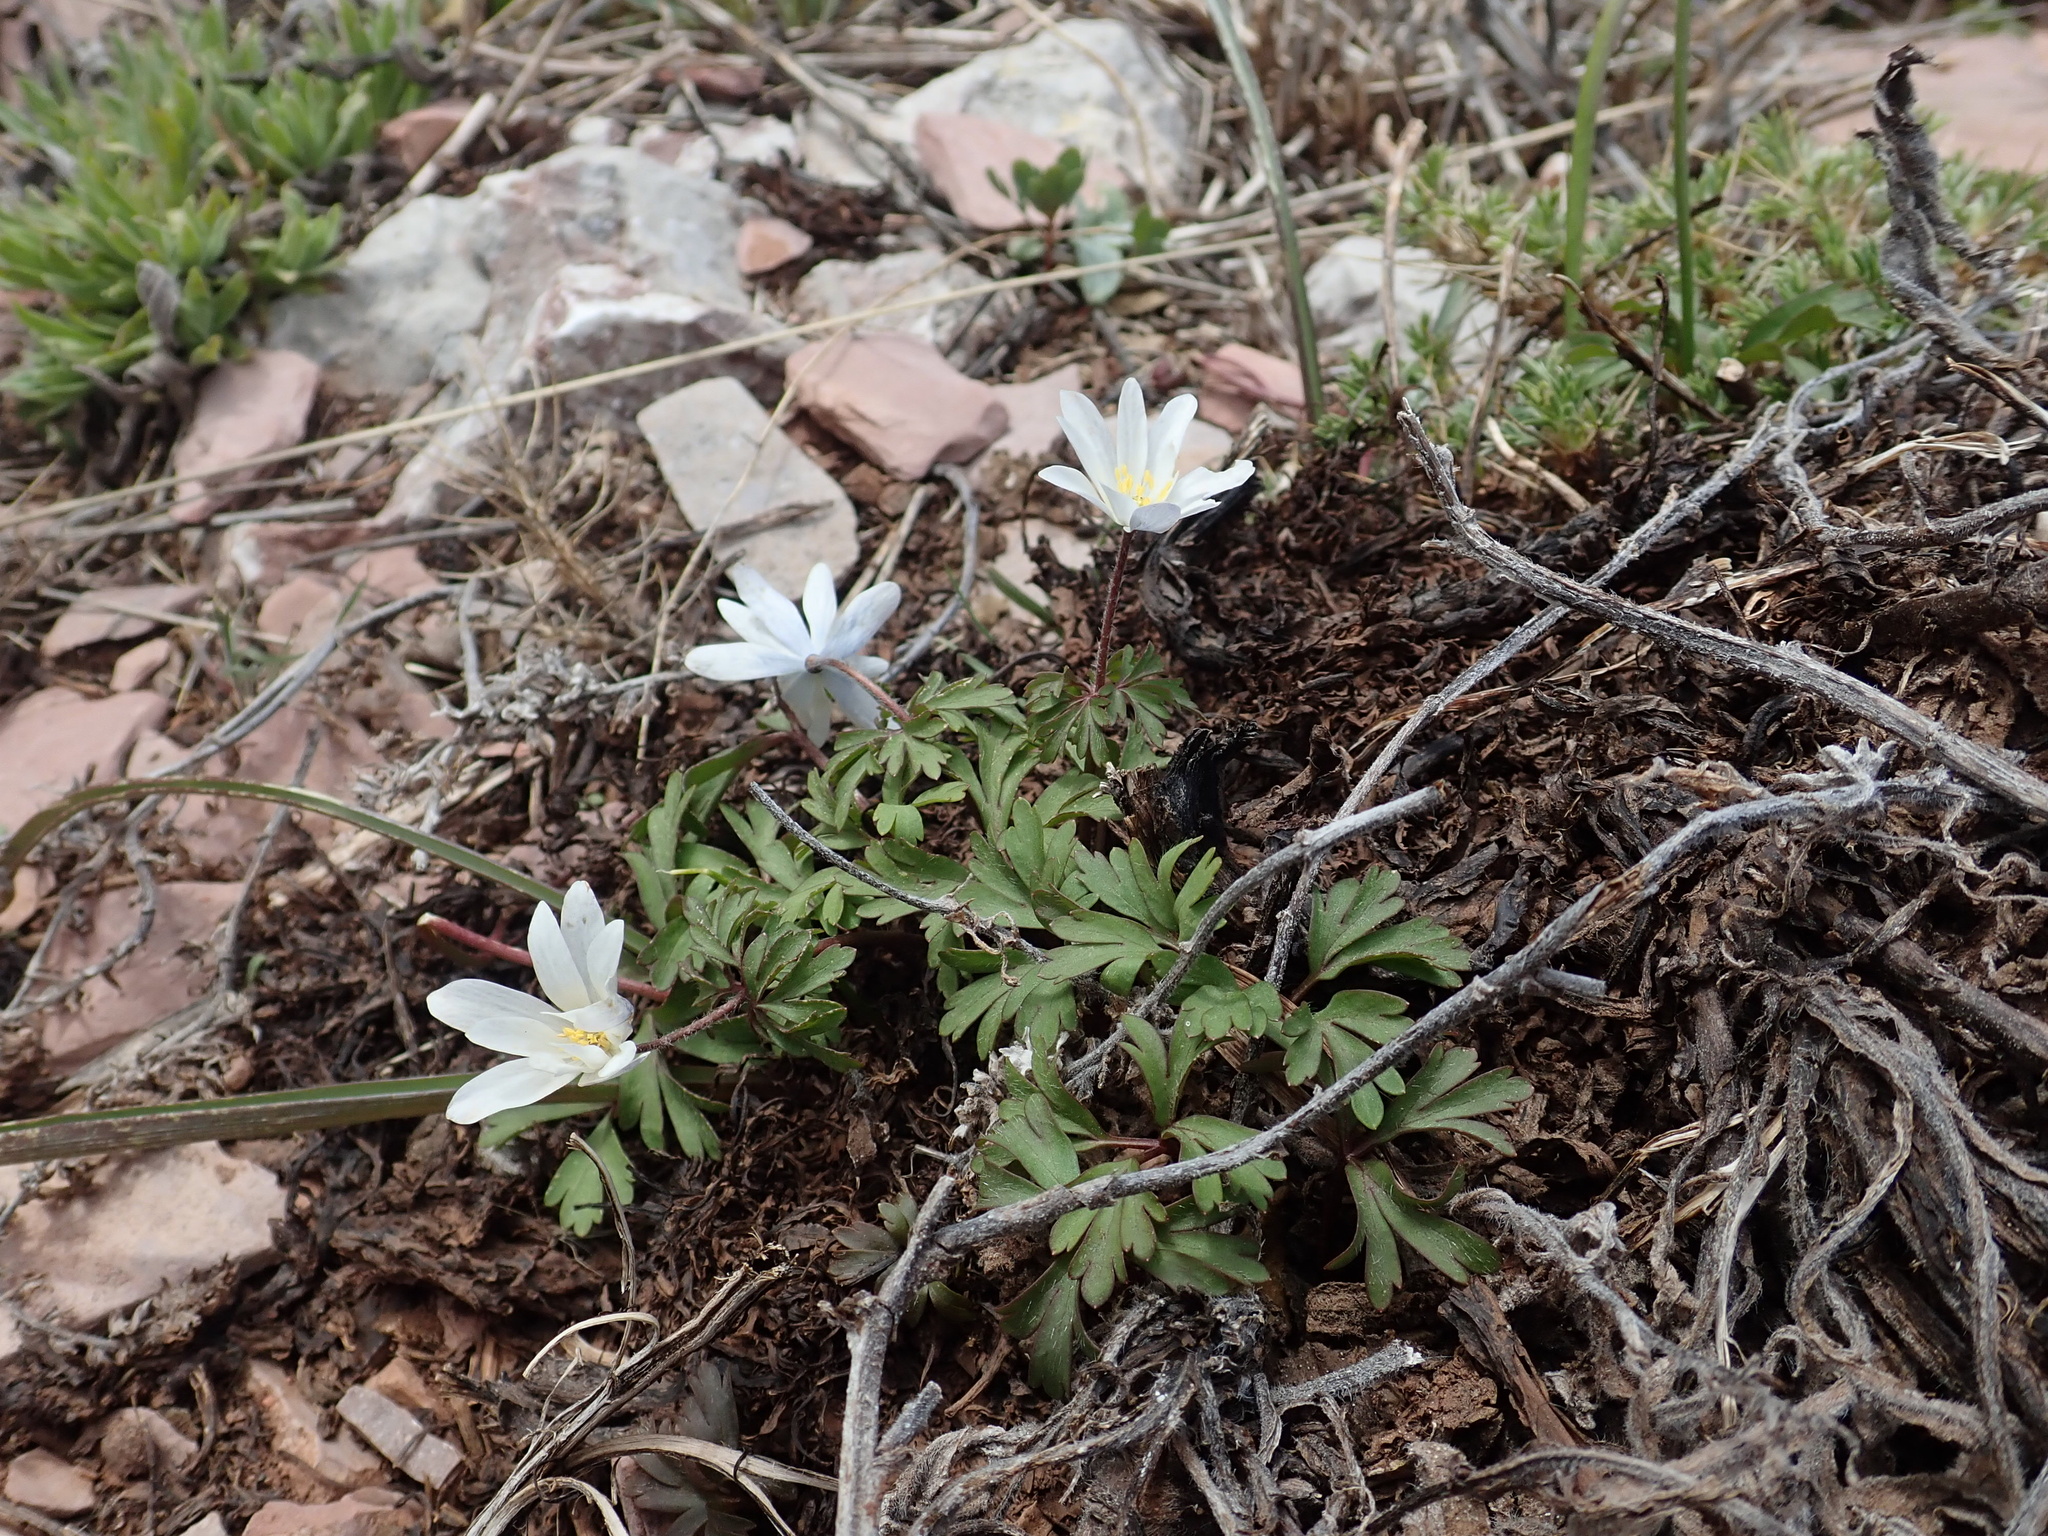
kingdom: Plantae
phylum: Tracheophyta
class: Magnoliopsida
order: Ranunculales
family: Ranunculaceae
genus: Anemone
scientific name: Anemone blanda
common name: Balkan anemone
